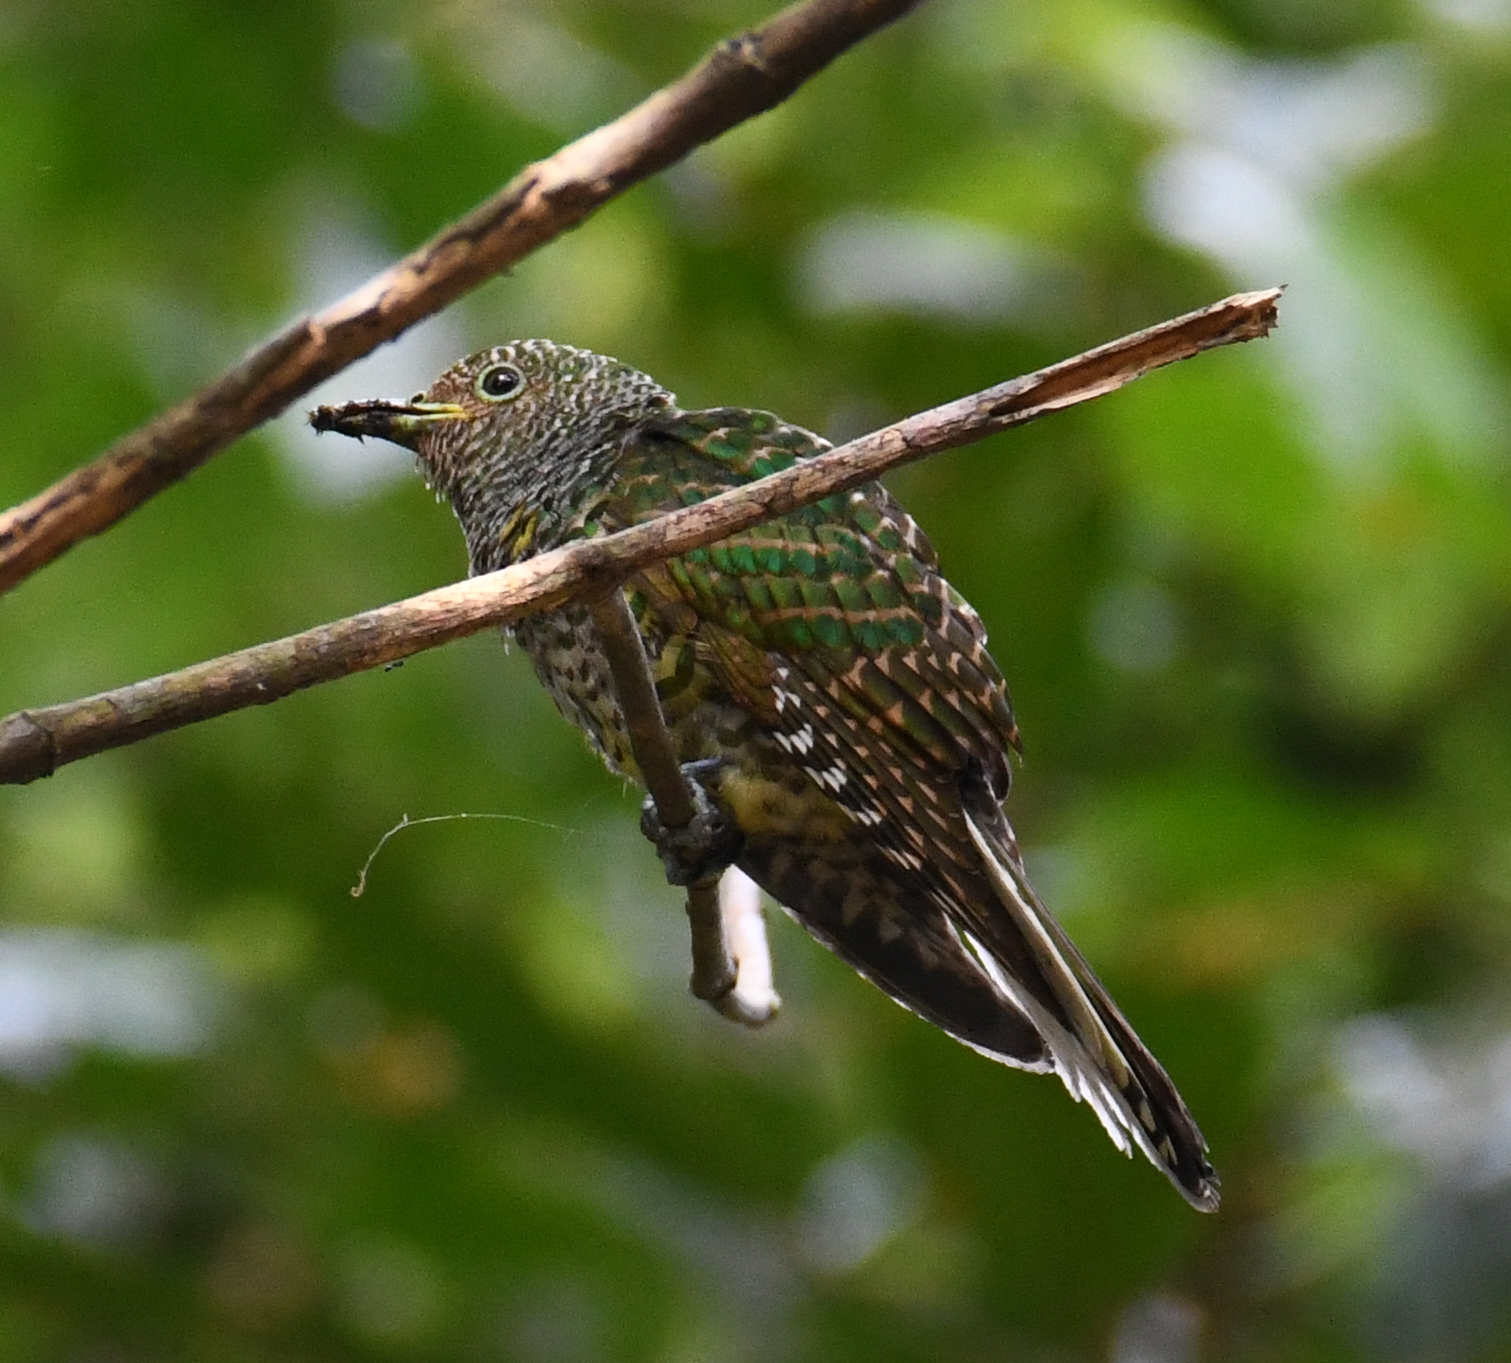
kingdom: Animalia
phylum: Chordata
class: Aves
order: Cuculiformes
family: Cuculidae
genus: Chrysococcyx
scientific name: Chrysococcyx cupreus
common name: African emerald cuckoo
